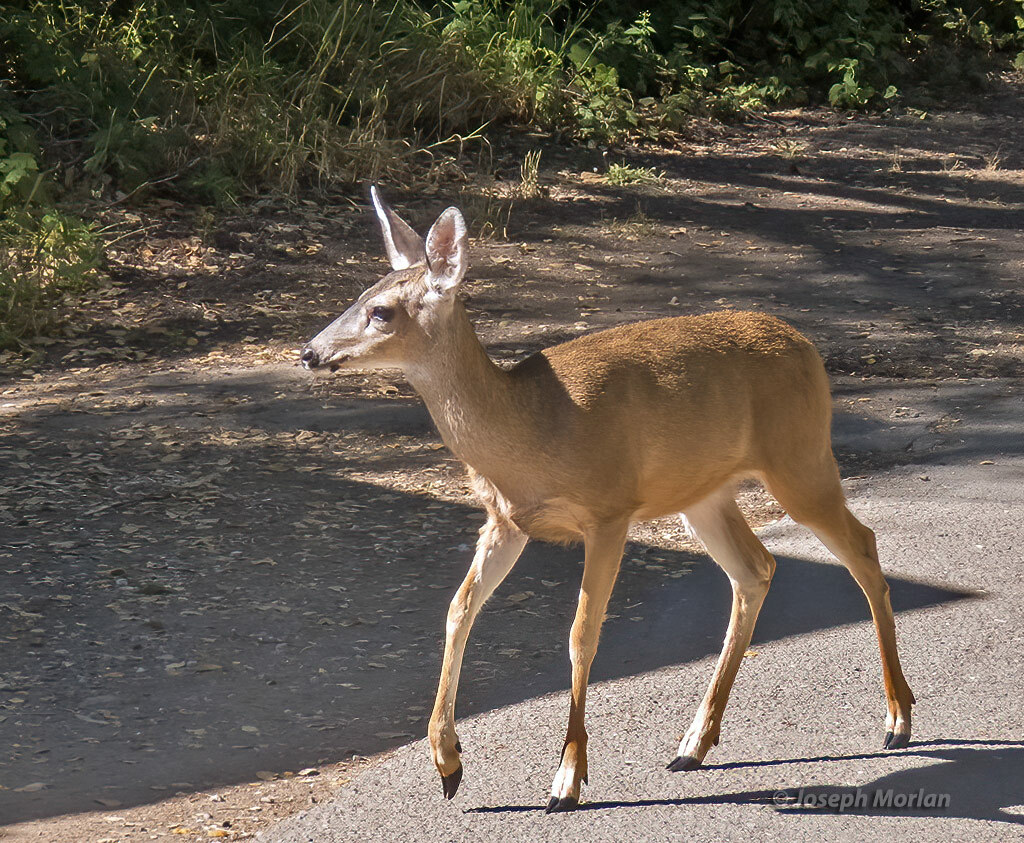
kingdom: Animalia
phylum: Chordata
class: Mammalia
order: Artiodactyla
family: Cervidae
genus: Odocoileus
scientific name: Odocoileus hemionus
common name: Mule deer
